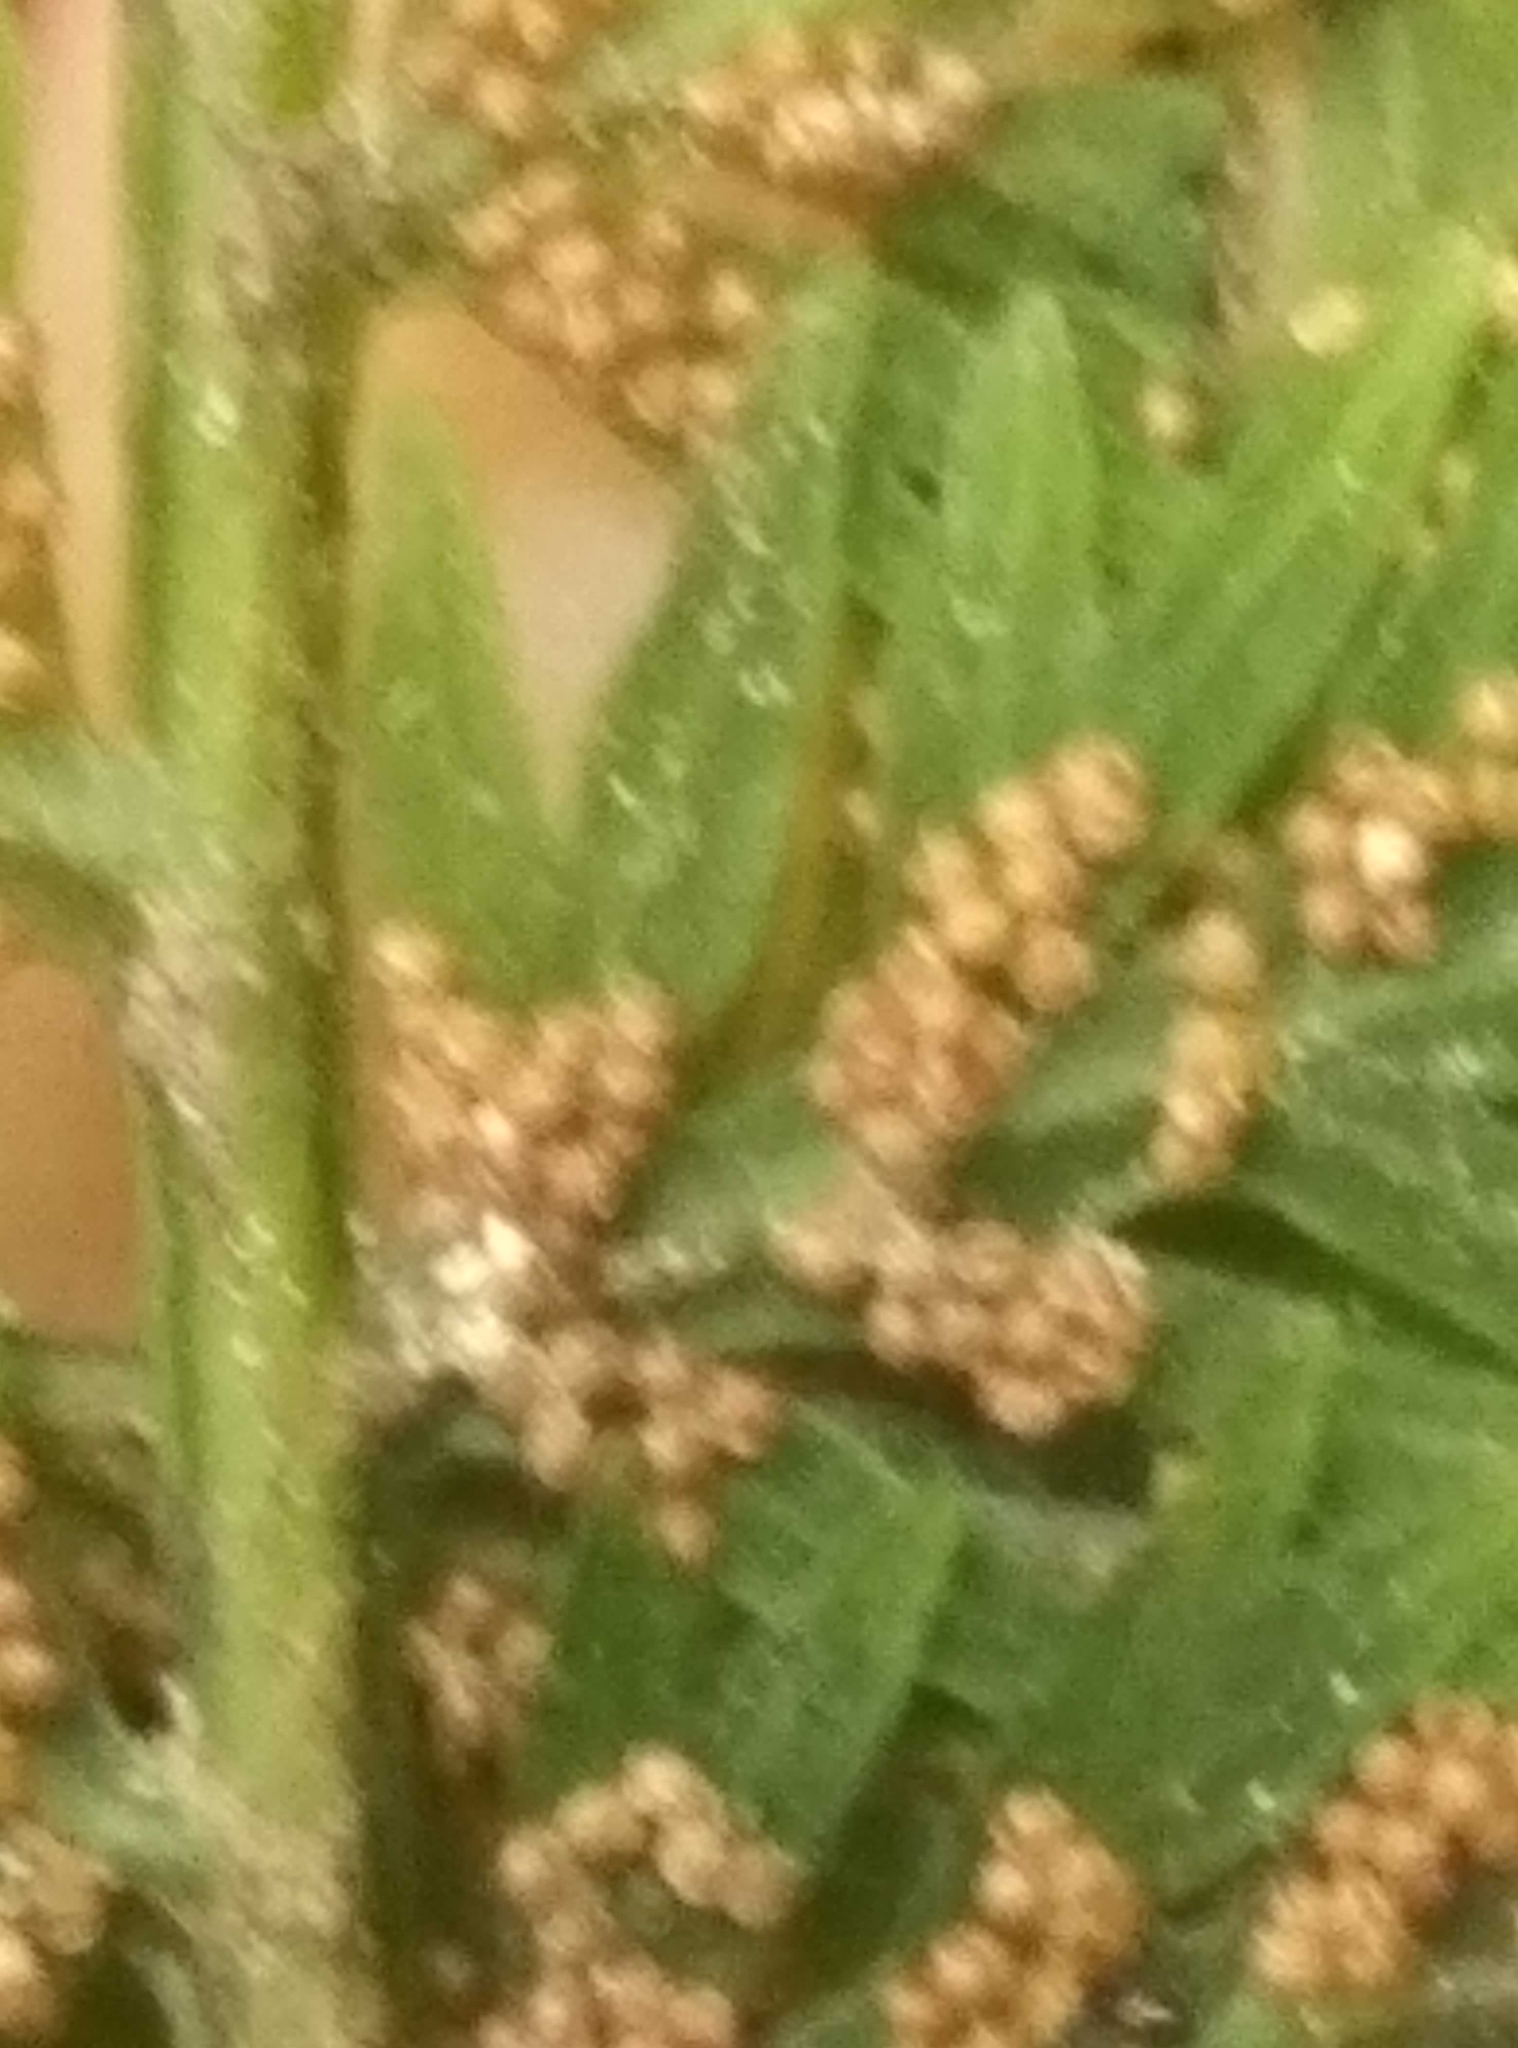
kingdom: Plantae
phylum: Tracheophyta
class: Polypodiopsida
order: Osmundales
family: Osmundaceae
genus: Leptopteris
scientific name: Leptopteris hymenophylloides
